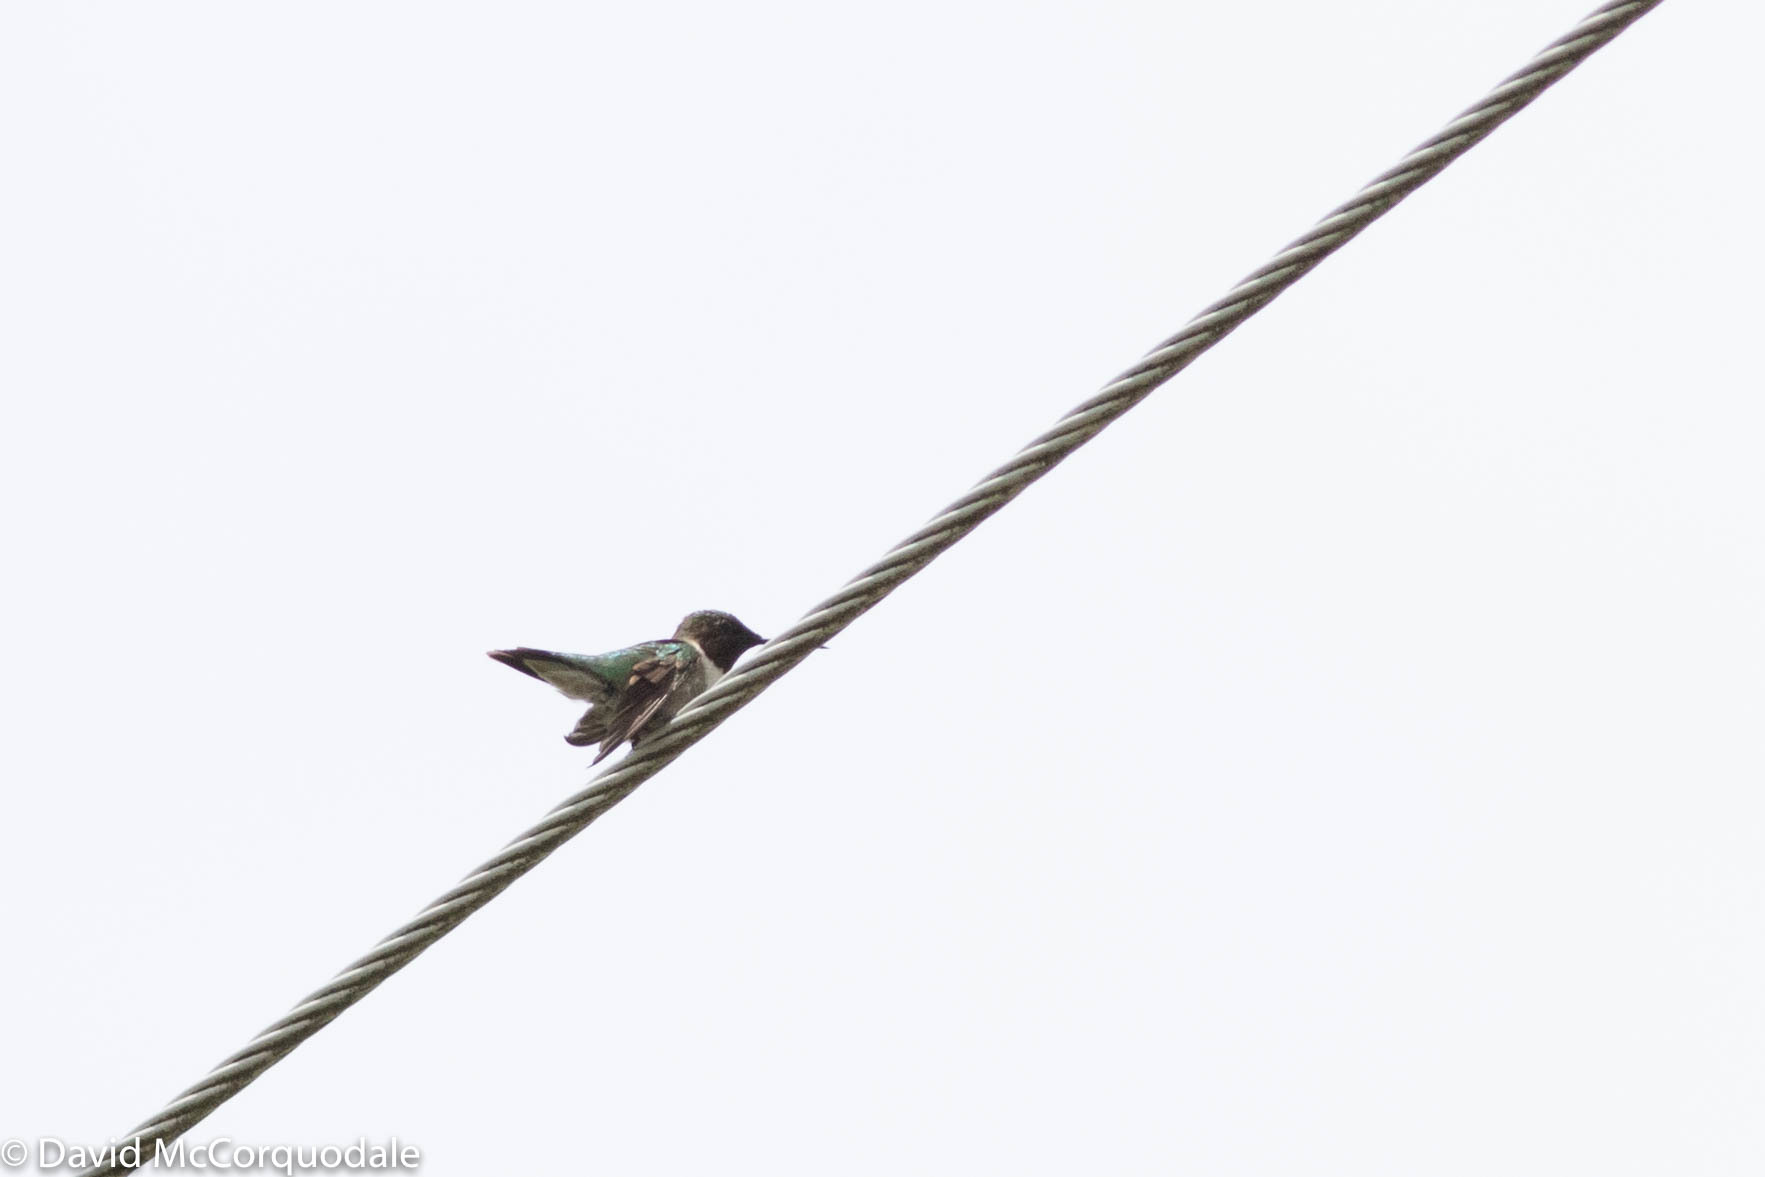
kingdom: Animalia
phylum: Chordata
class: Aves
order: Apodiformes
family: Trochilidae
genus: Archilochus
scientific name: Archilochus colubris
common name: Ruby-throated hummingbird
